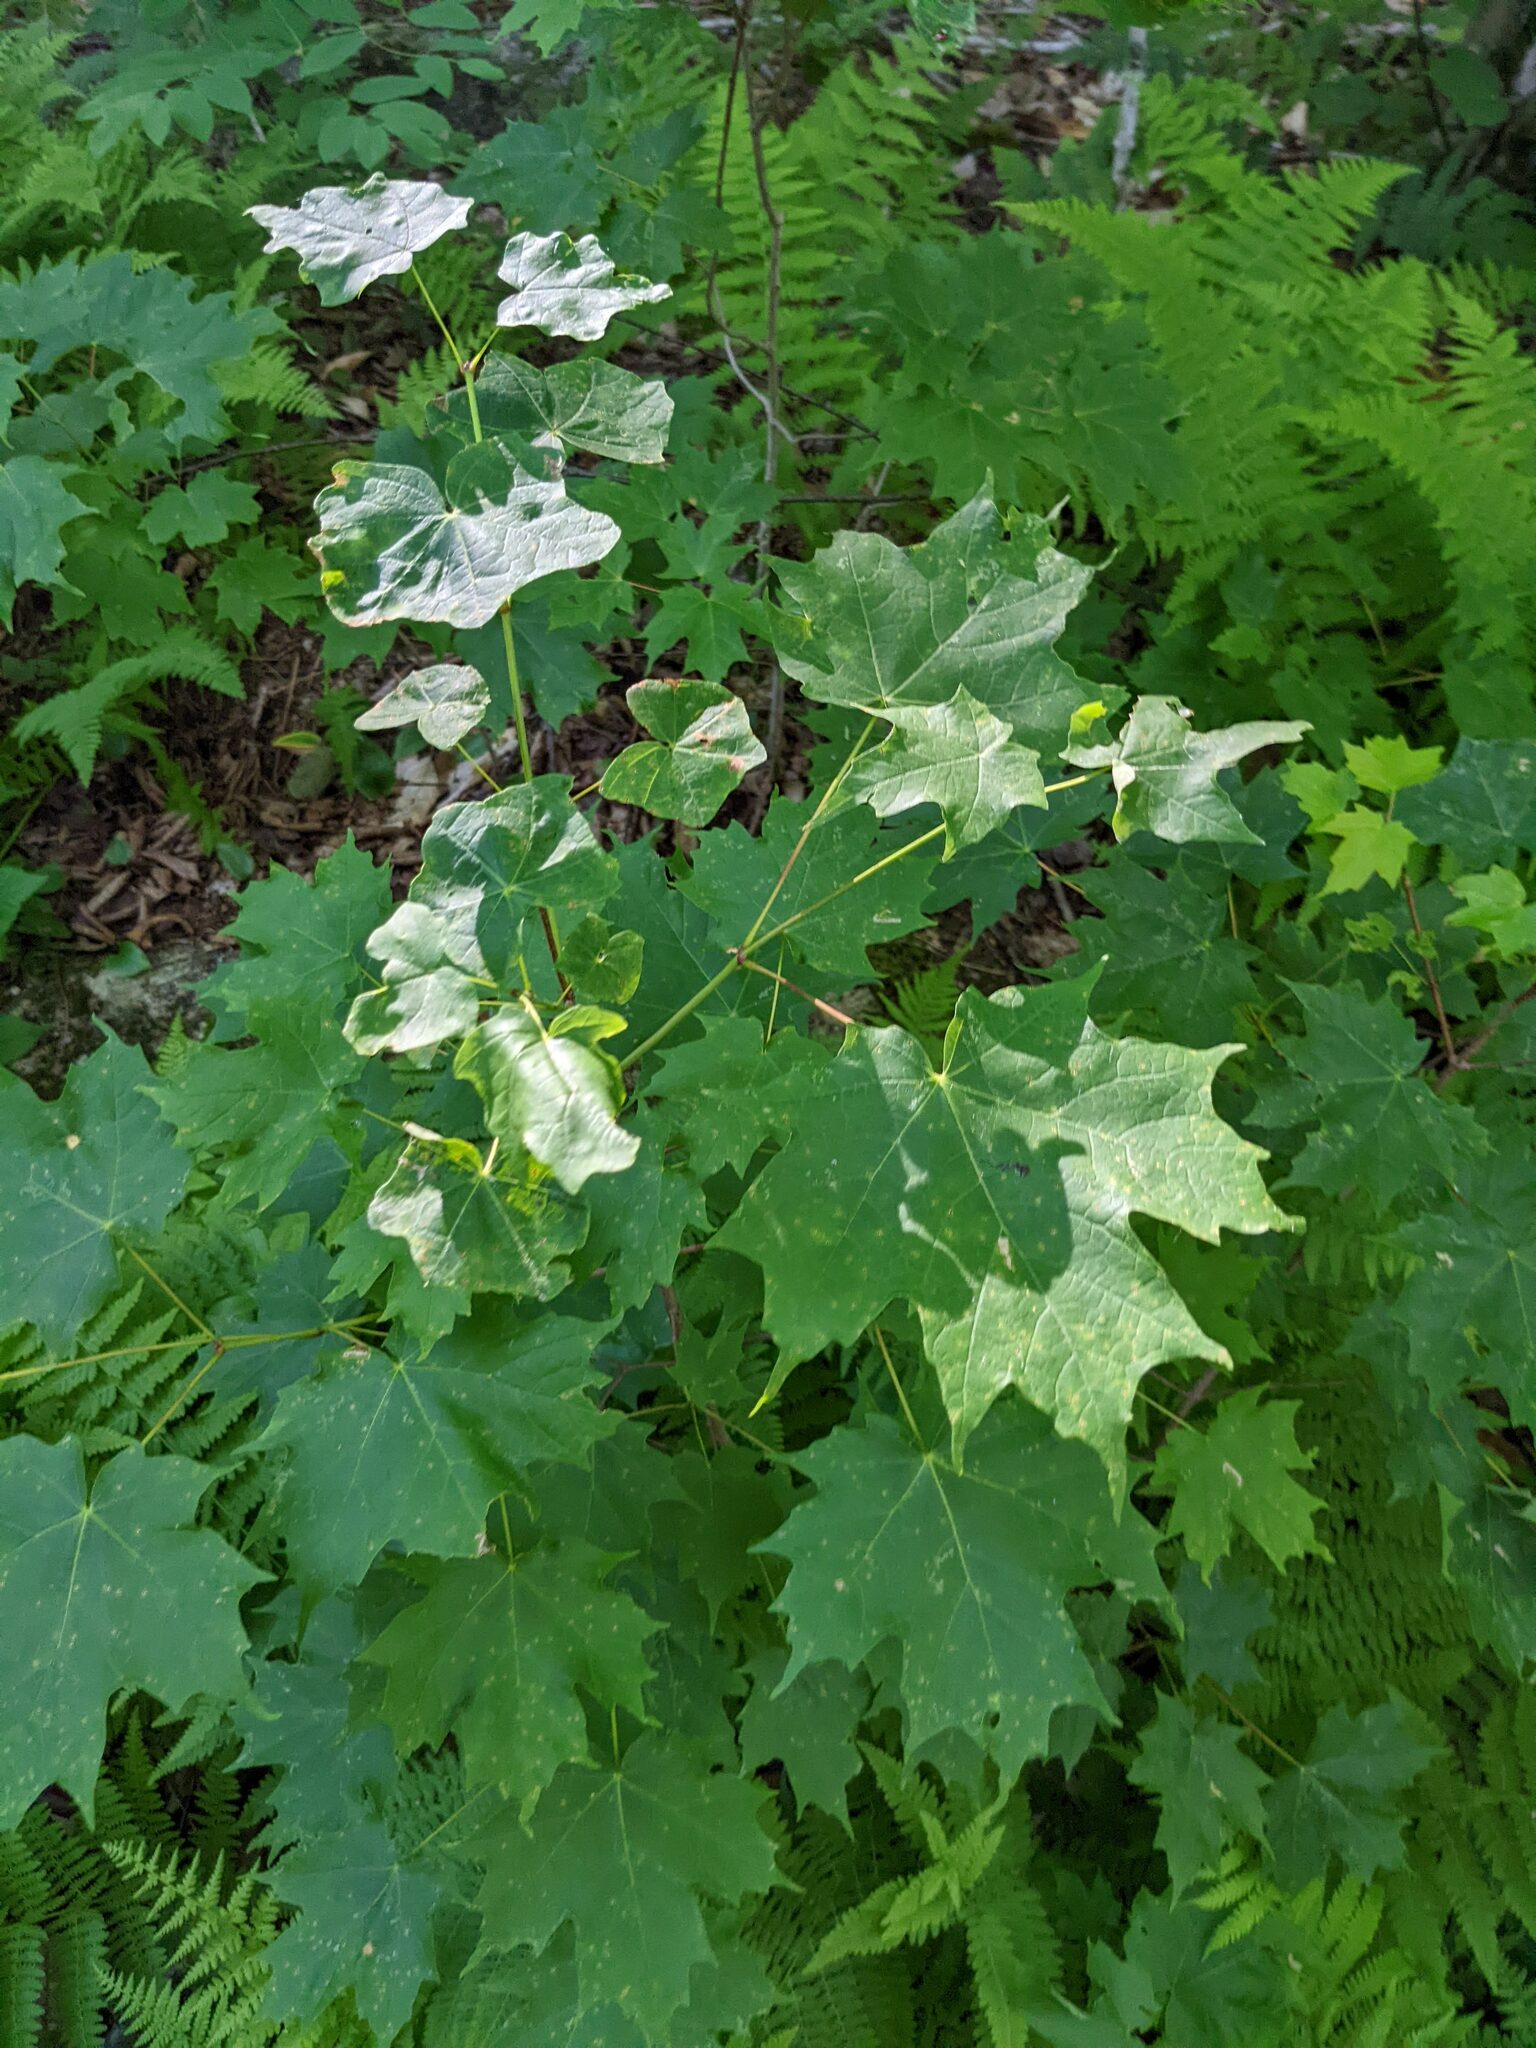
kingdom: Plantae
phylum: Tracheophyta
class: Magnoliopsida
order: Sapindales
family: Sapindaceae
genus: Acer
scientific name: Acer saccharum
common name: Sugar maple
